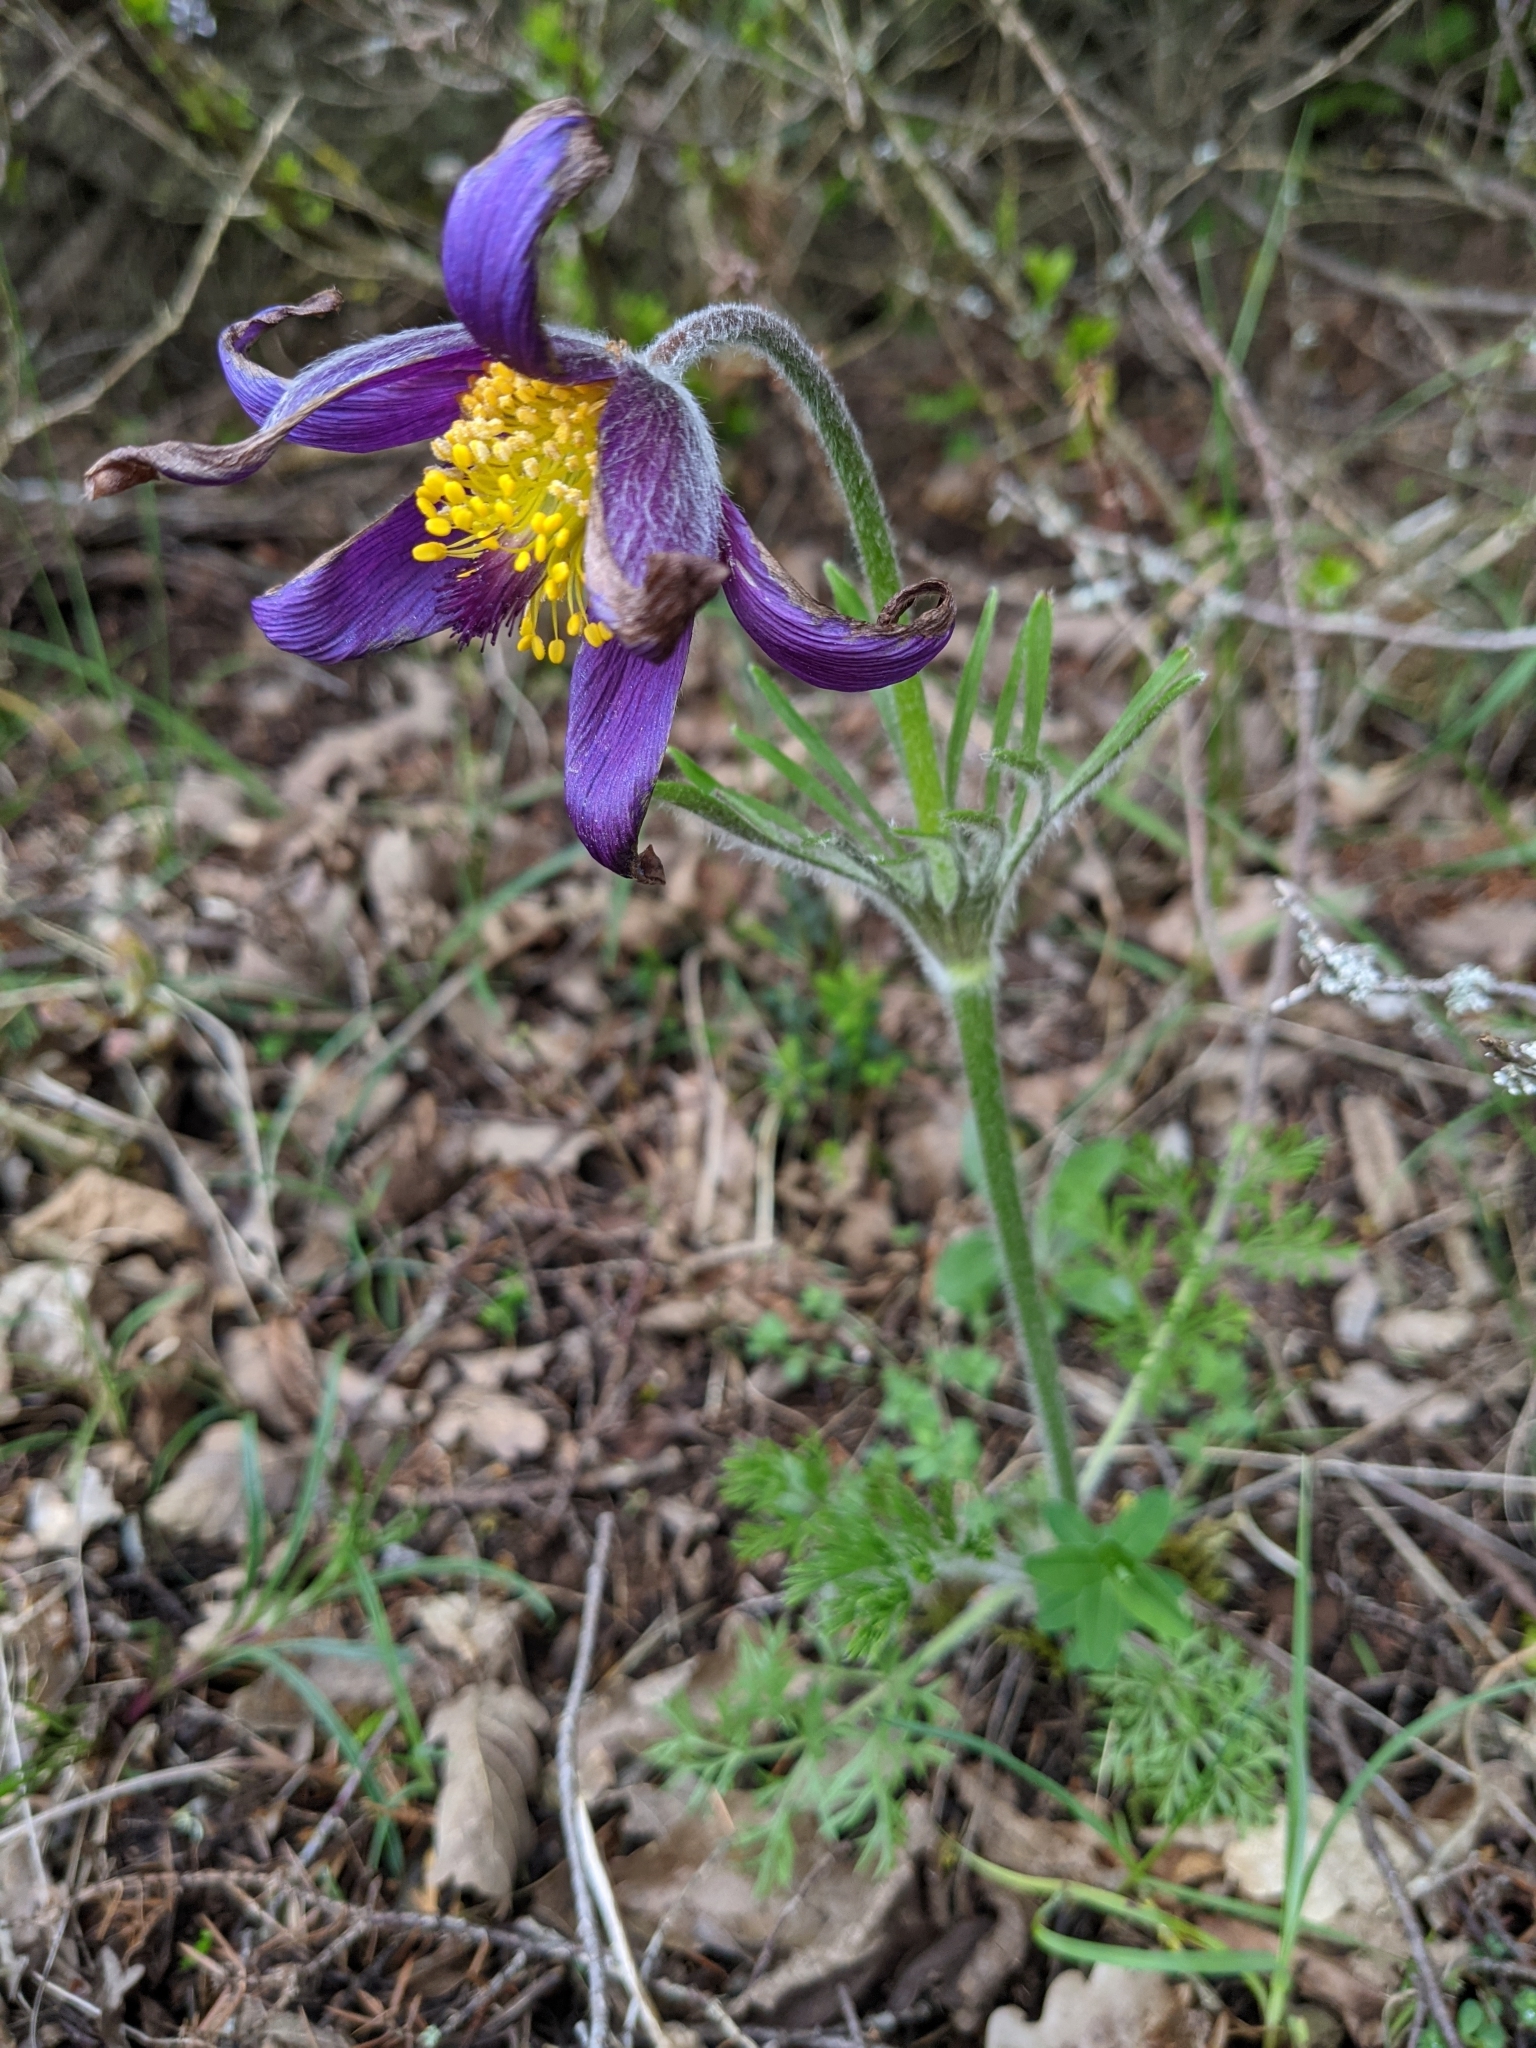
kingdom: Plantae
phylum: Tracheophyta
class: Magnoliopsida
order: Ranunculales
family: Ranunculaceae
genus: Pulsatilla
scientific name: Pulsatilla vulgaris
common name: Pasqueflower
